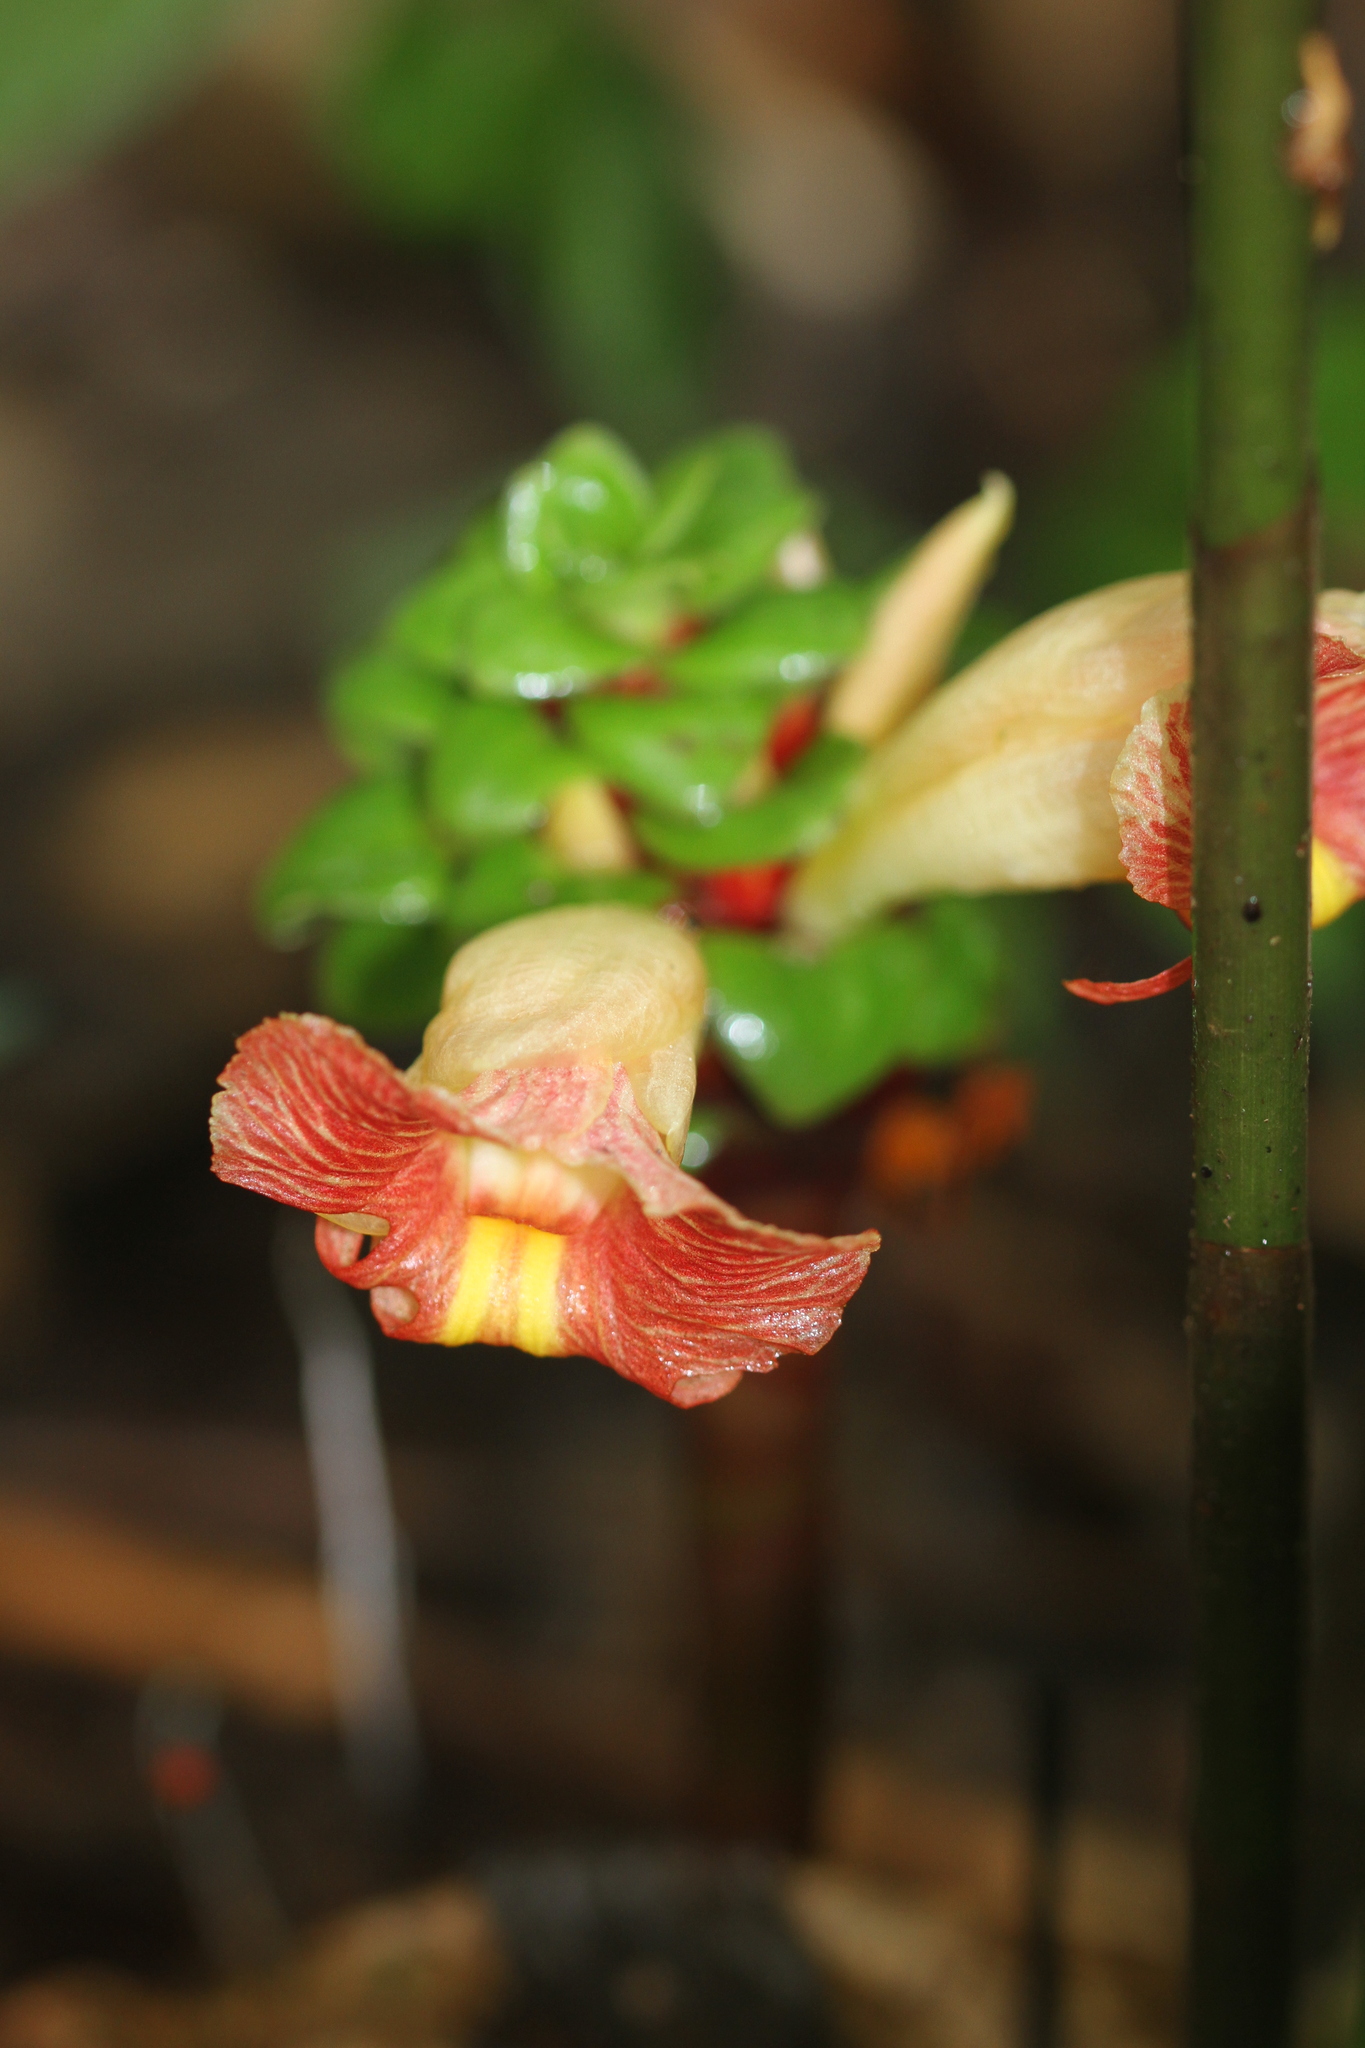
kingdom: Plantae
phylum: Tracheophyta
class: Liliopsida
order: Zingiberales
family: Costaceae
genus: Costus
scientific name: Costus claviger
